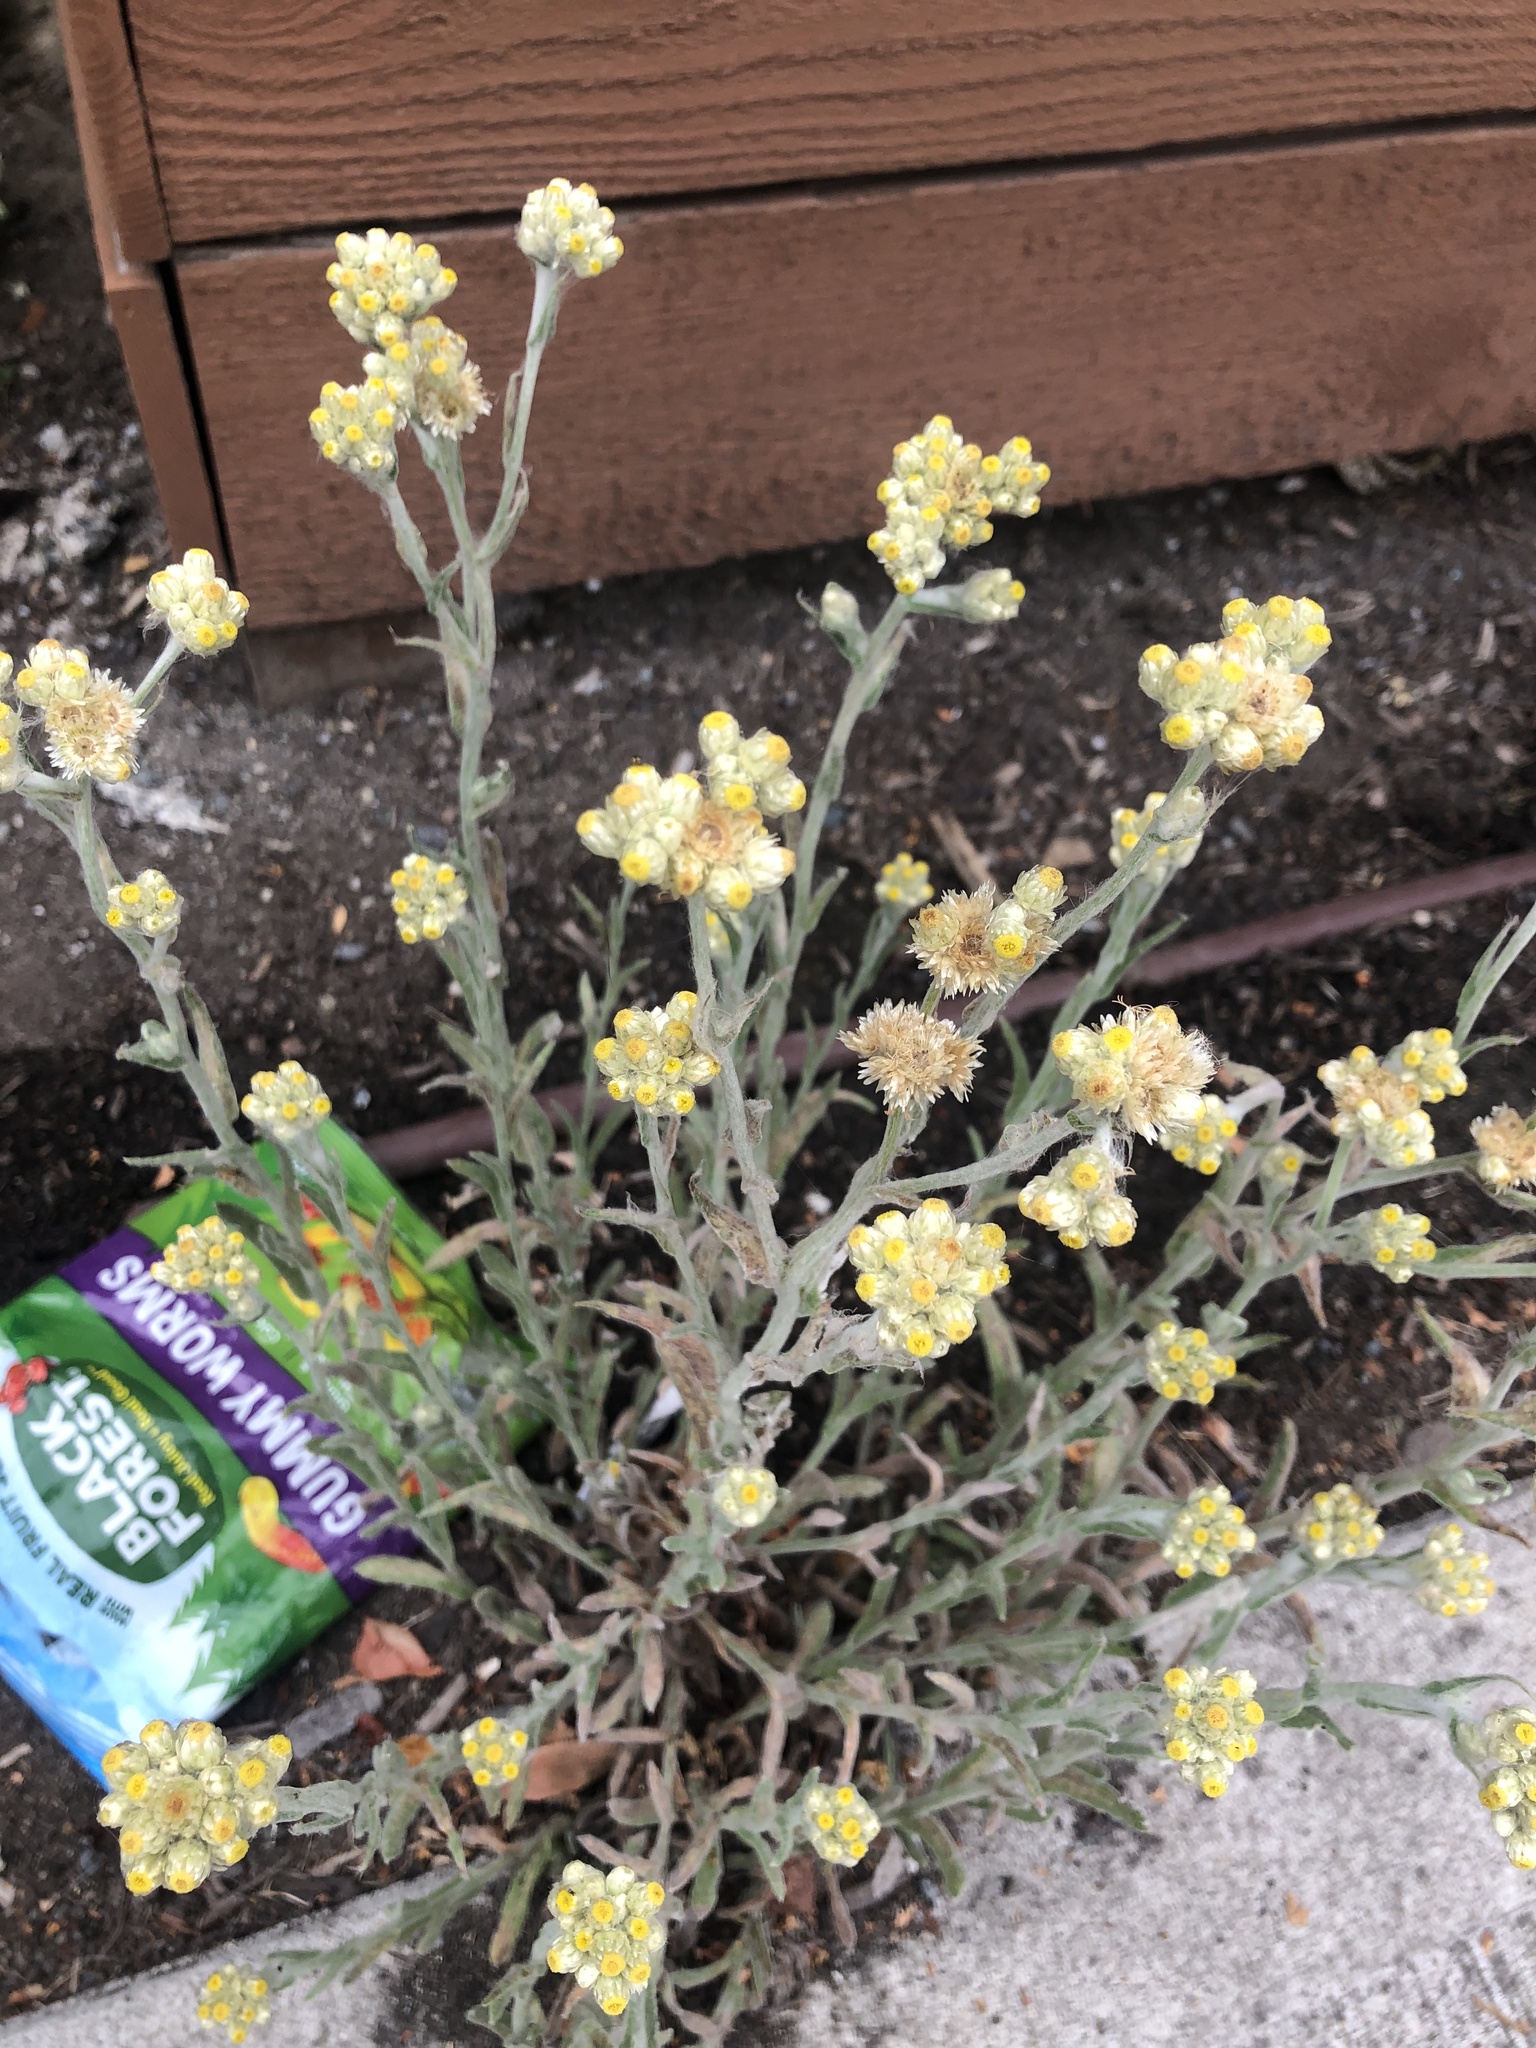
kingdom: Plantae
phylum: Tracheophyta
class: Magnoliopsida
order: Asterales
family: Asteraceae
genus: Pseudognaphalium
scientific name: Pseudognaphalium stramineum
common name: Cotton-batting-plant
